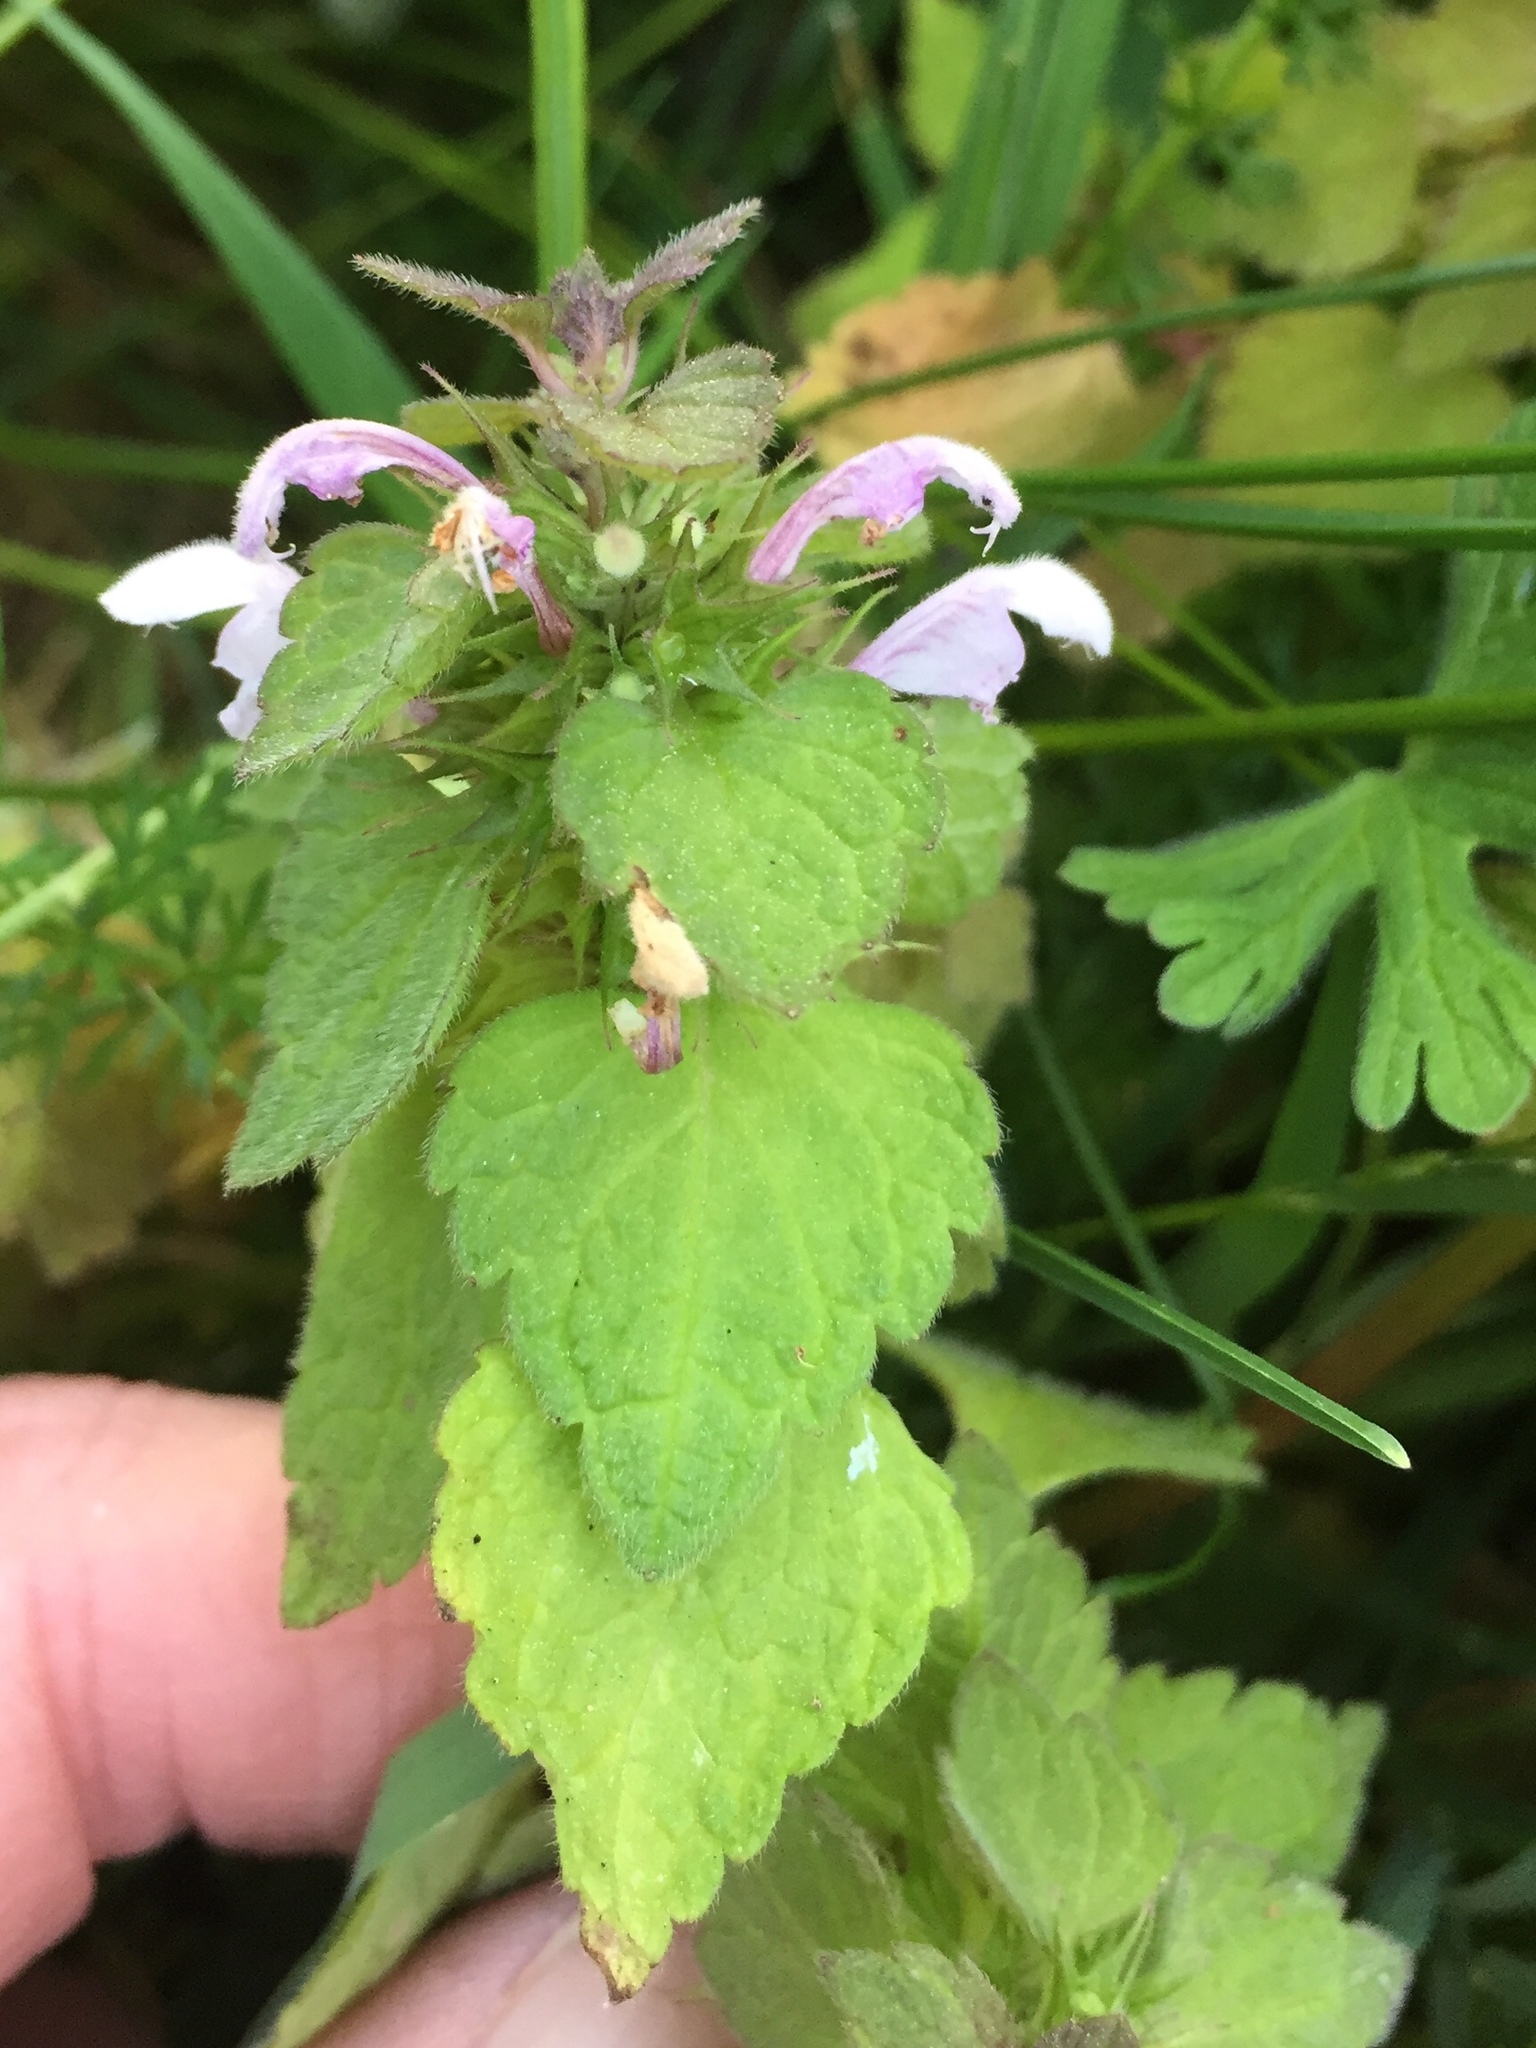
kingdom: Plantae
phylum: Tracheophyta
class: Magnoliopsida
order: Lamiales
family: Lamiaceae
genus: Lamium
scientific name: Lamium purpureum
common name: Red dead-nettle
